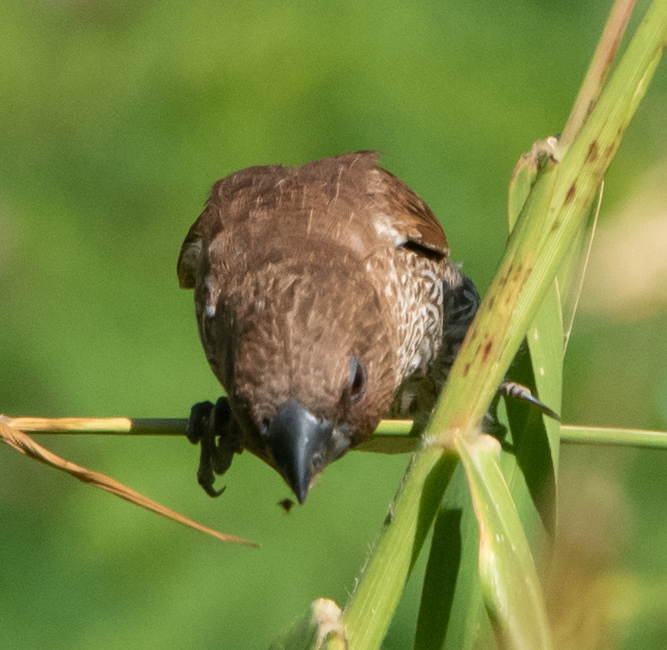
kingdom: Animalia
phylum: Chordata
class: Aves
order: Passeriformes
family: Estrildidae
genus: Lonchura
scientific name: Lonchura punctulata
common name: Scaly-breasted munia
